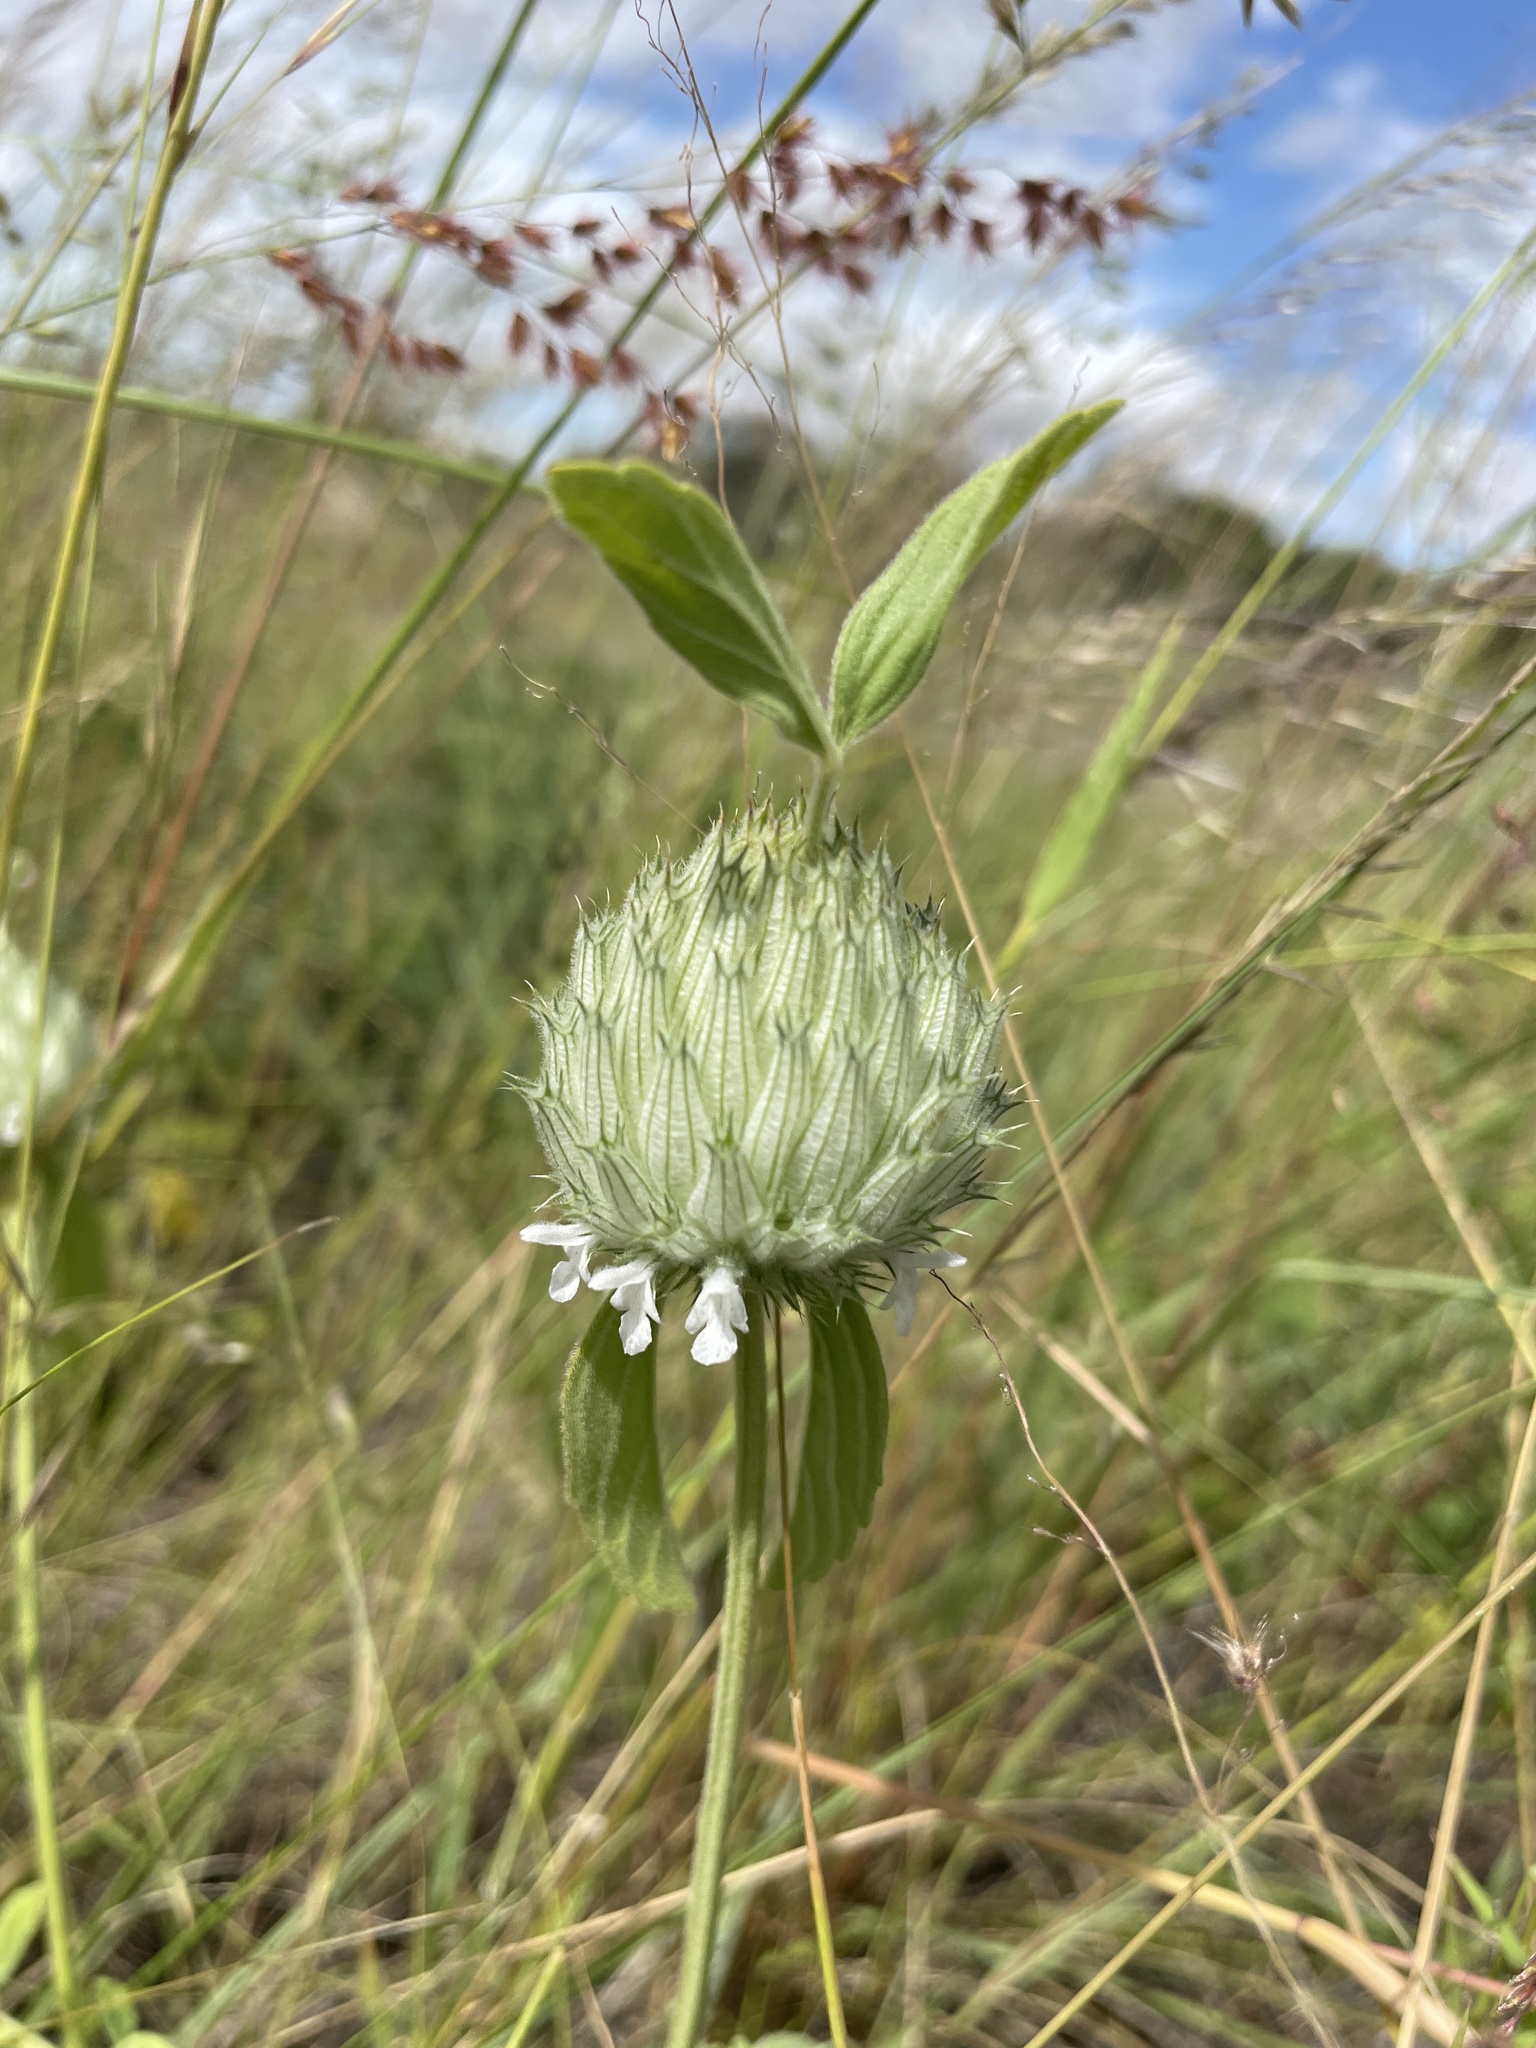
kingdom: Plantae
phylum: Tracheophyta
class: Magnoliopsida
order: Lamiales
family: Lamiaceae
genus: Acrotome
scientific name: Acrotome inflata
